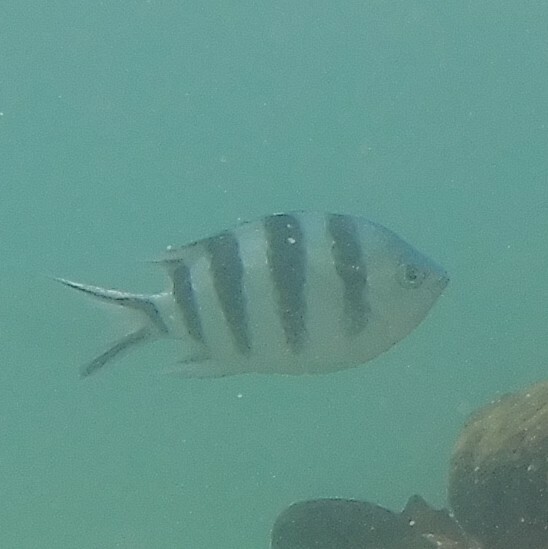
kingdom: Animalia
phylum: Chordata
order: Perciformes
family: Pomacentridae
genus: Abudefduf
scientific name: Abudefduf sexfasciatus
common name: Scissortail sergeant
